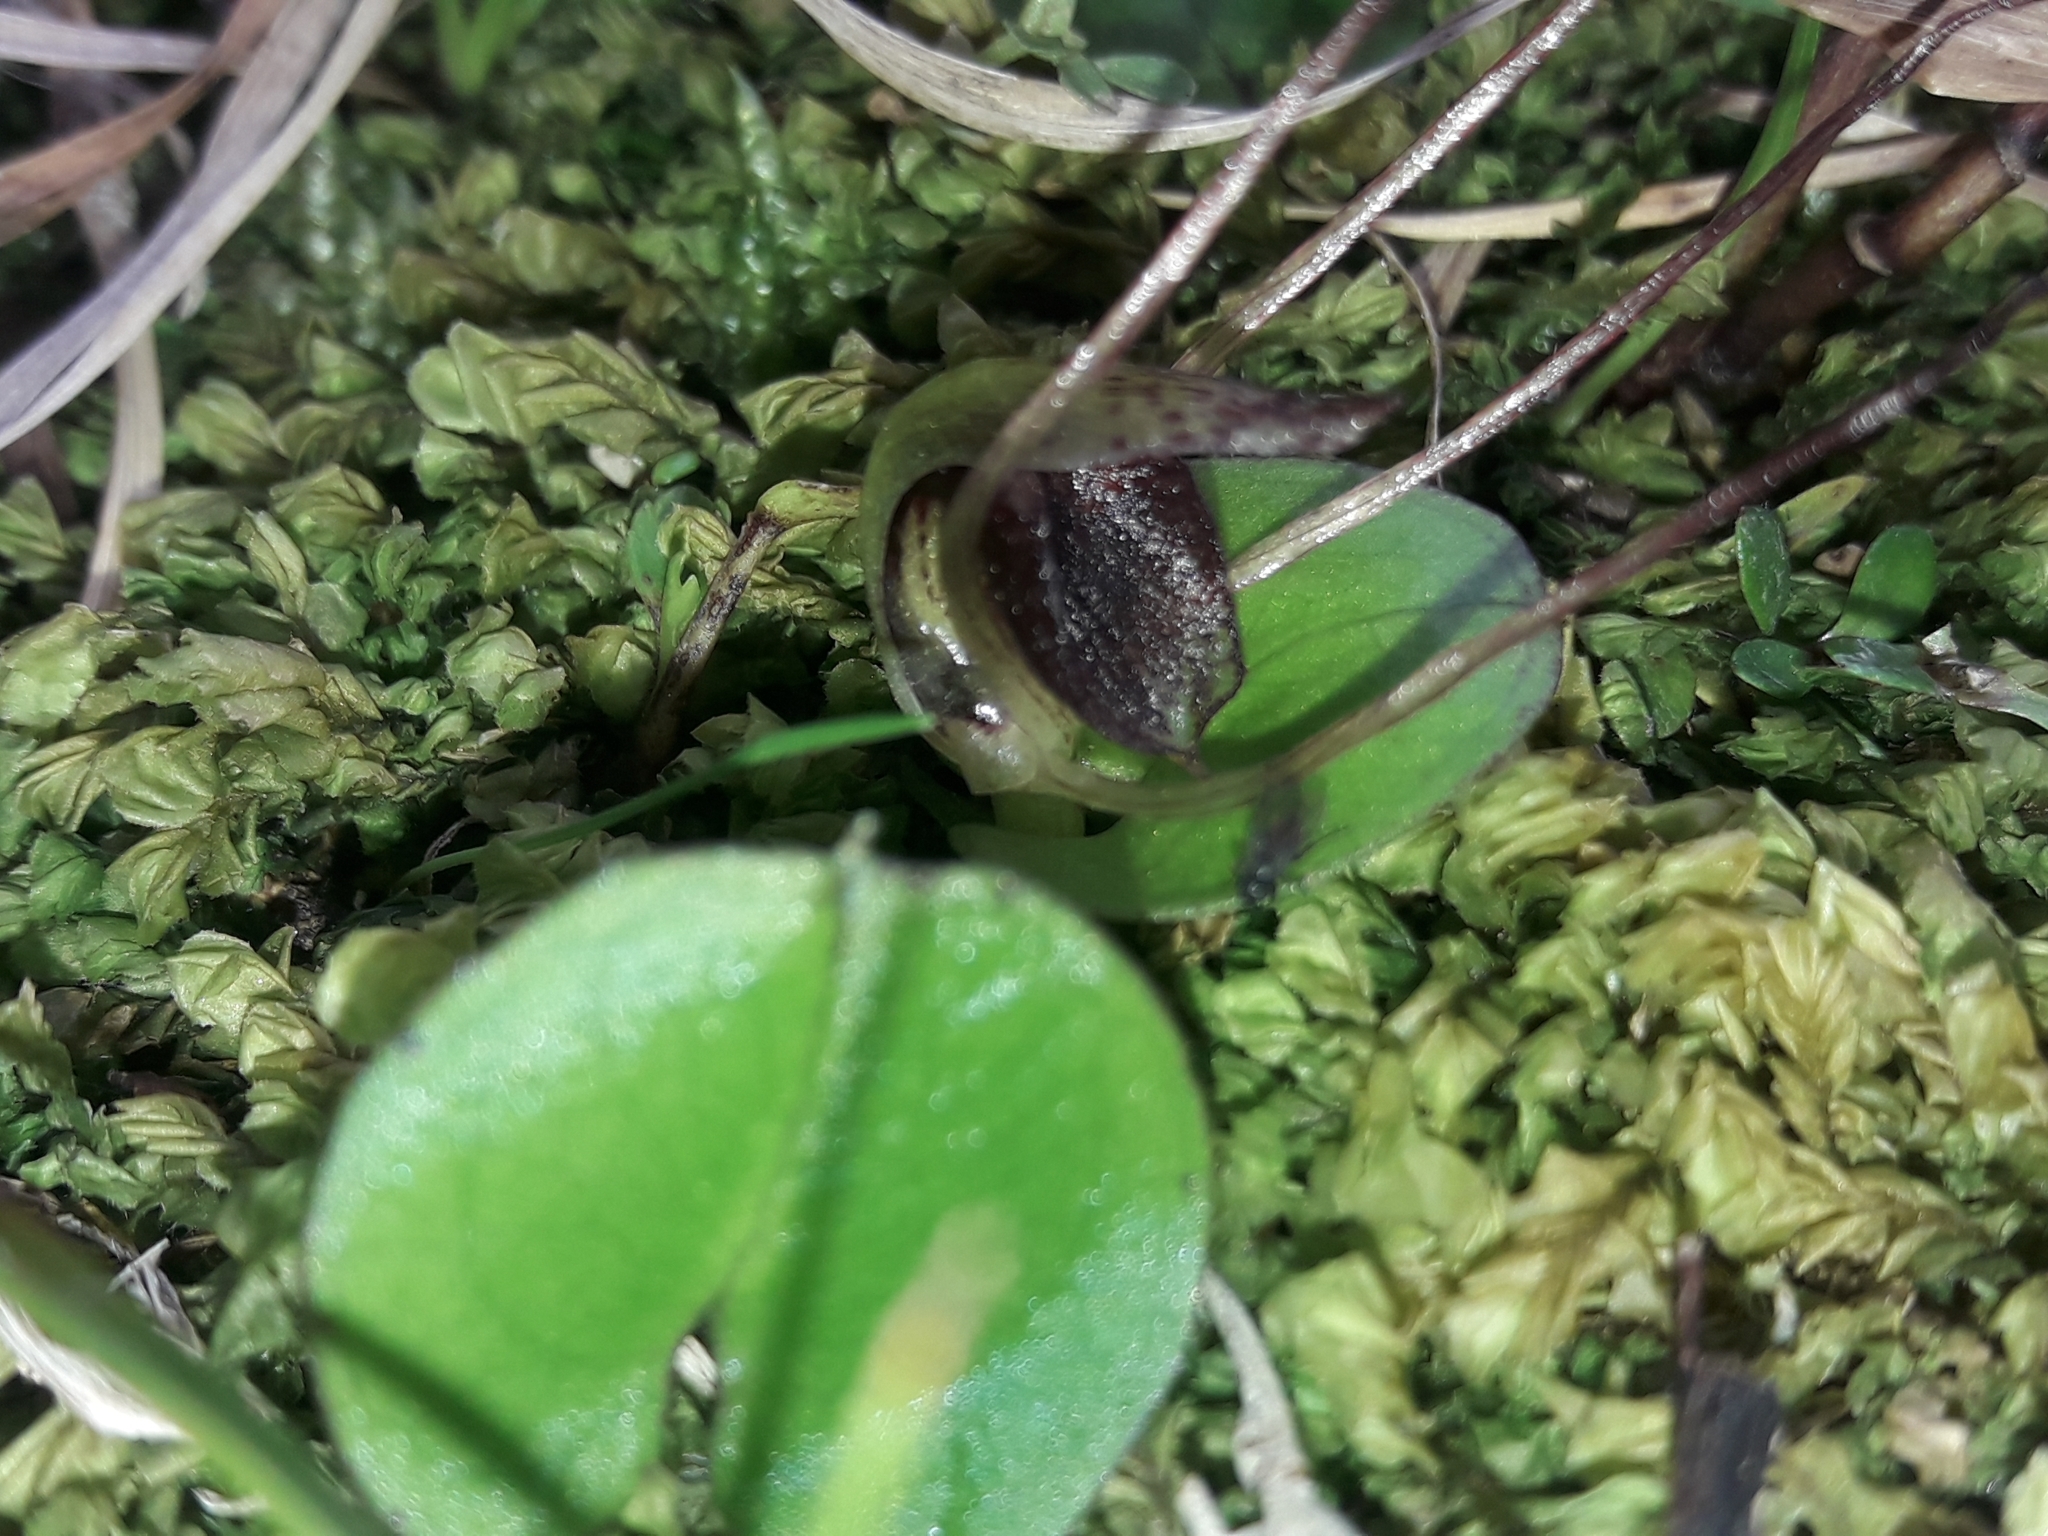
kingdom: Plantae
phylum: Tracheophyta
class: Liliopsida
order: Asparagales
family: Orchidaceae
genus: Corybas
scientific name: Corybas orbiculatus
